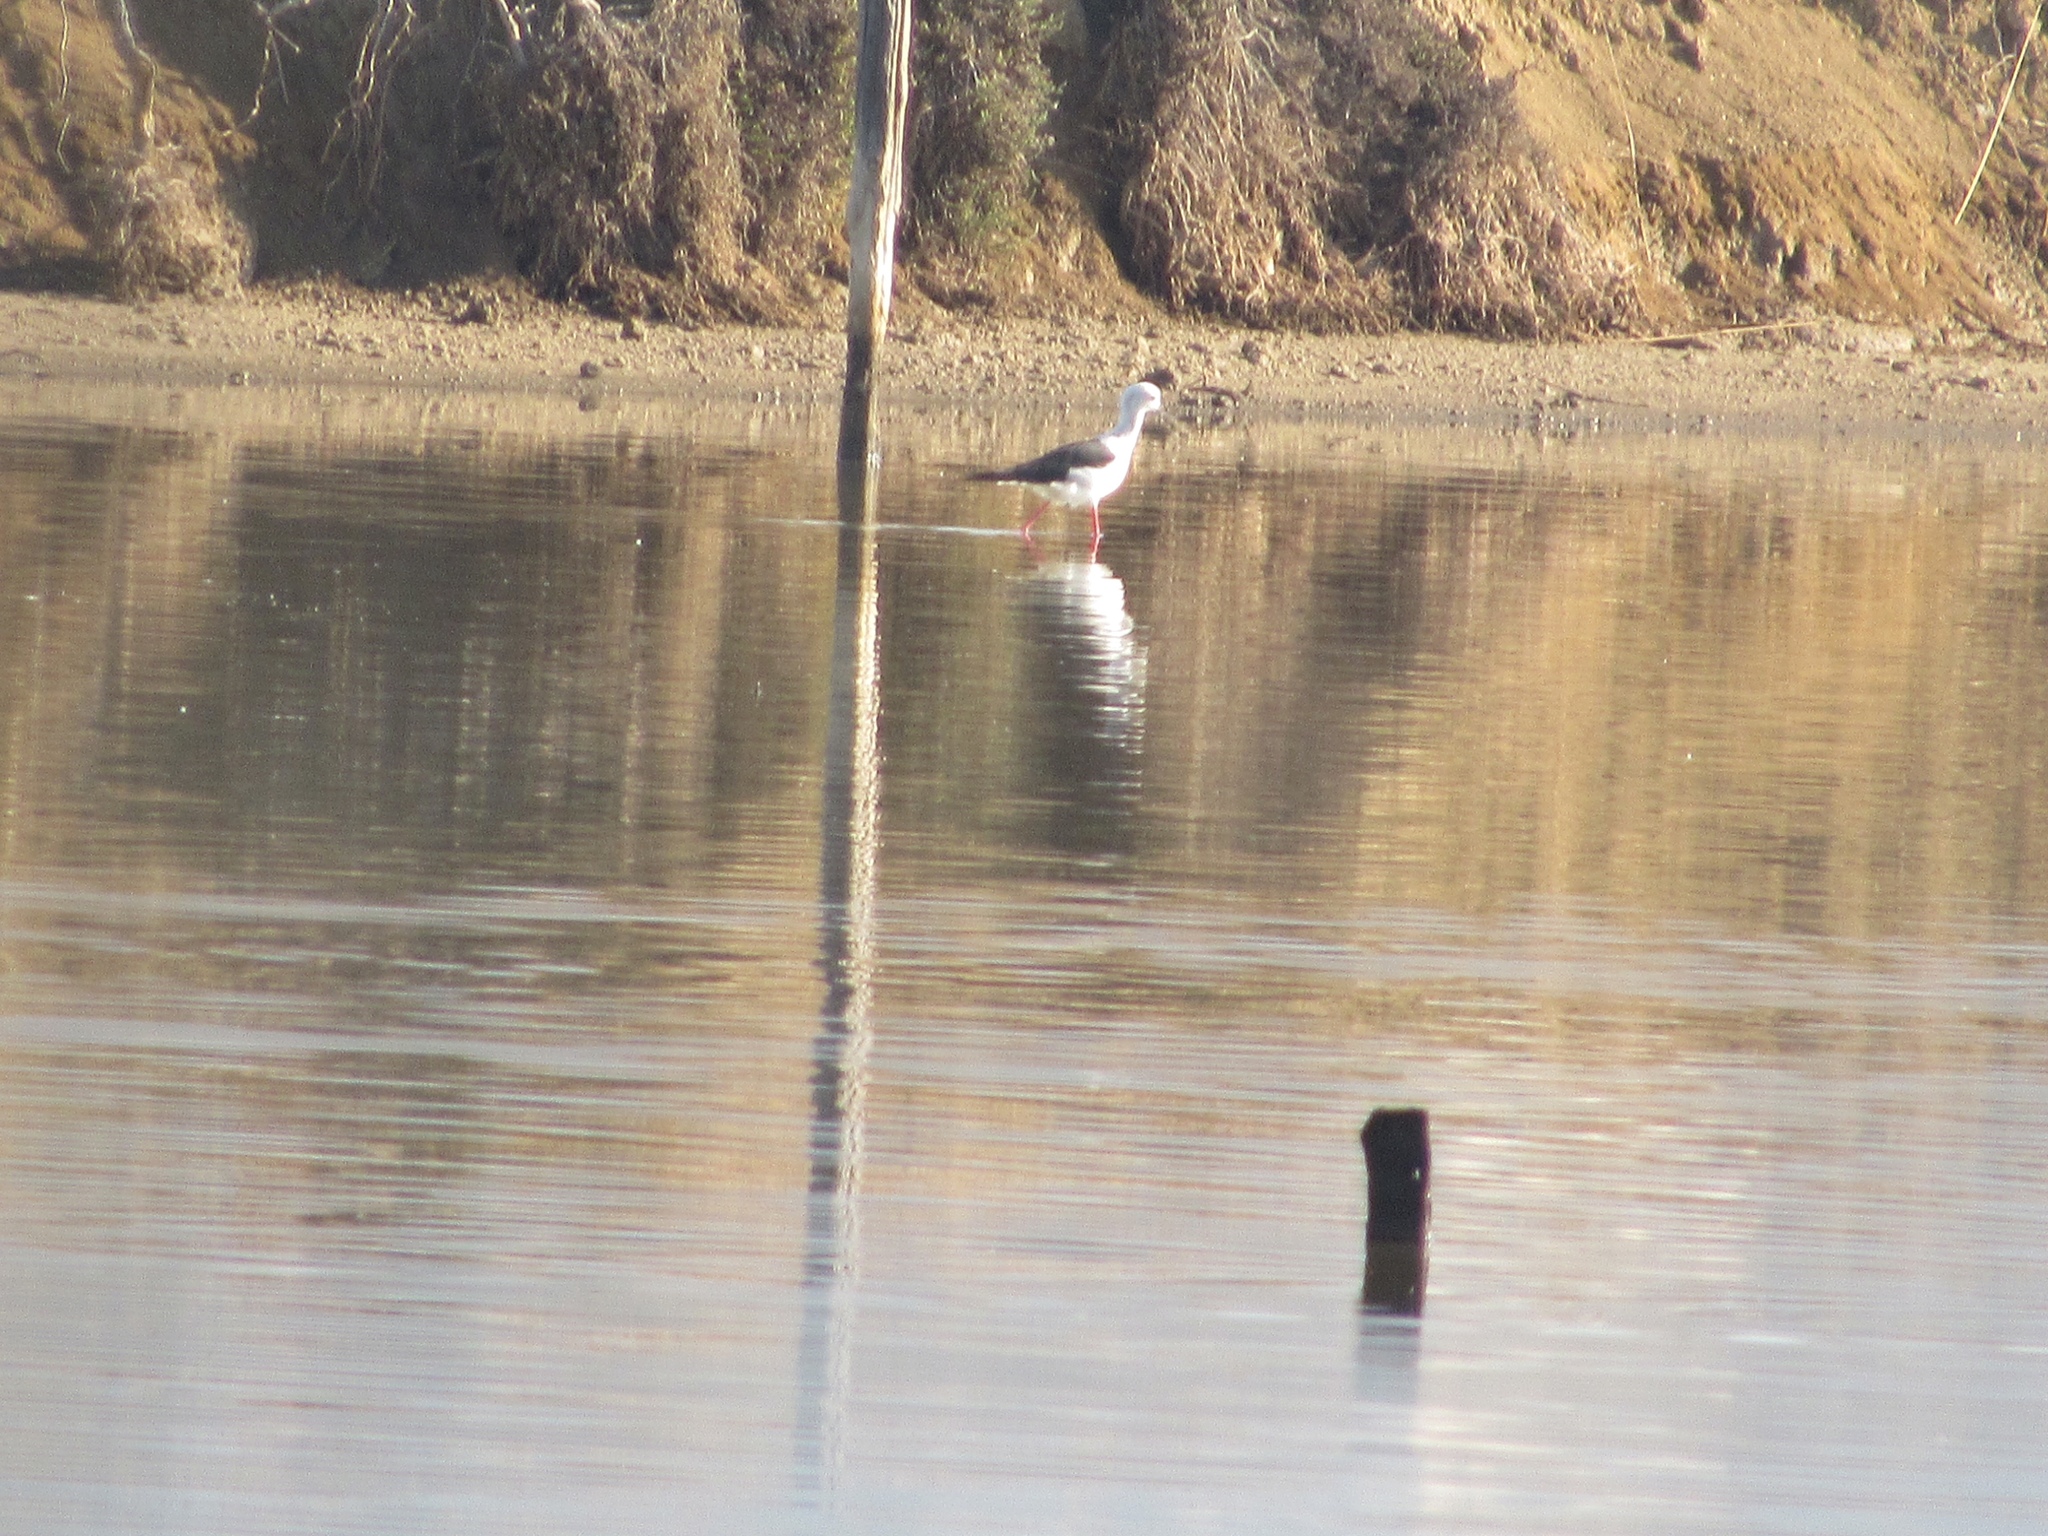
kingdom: Animalia
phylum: Chordata
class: Aves
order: Charadriiformes
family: Recurvirostridae
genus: Himantopus
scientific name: Himantopus himantopus
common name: Black-winged stilt
